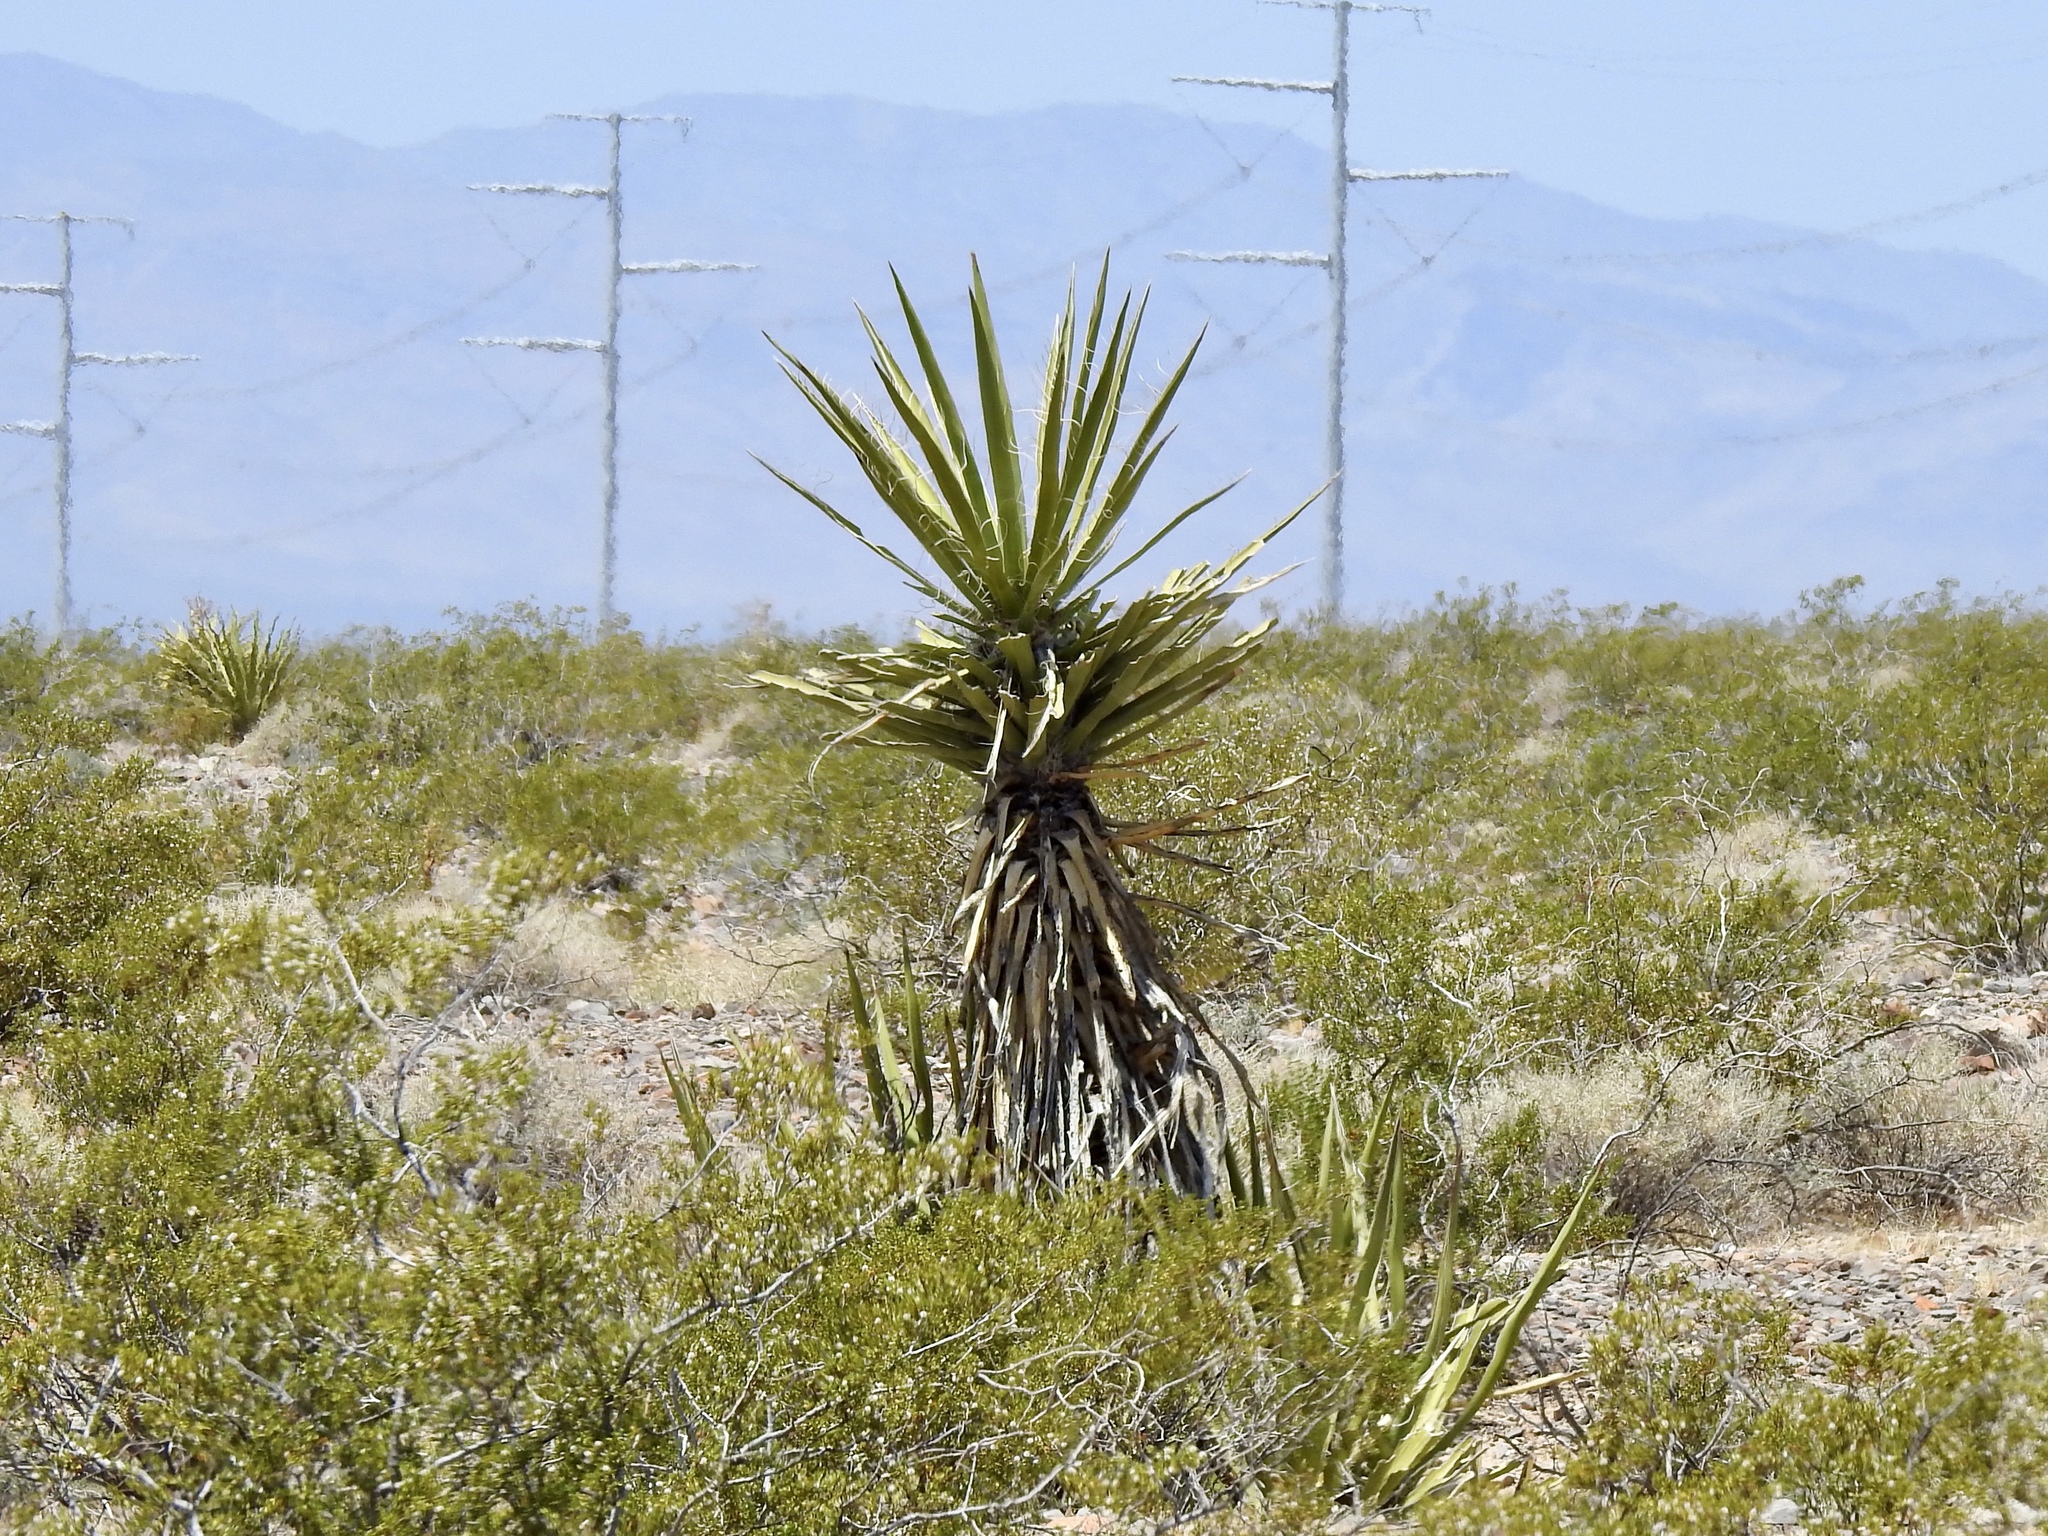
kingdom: Plantae
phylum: Tracheophyta
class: Liliopsida
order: Asparagales
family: Asparagaceae
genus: Yucca
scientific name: Yucca schidigera
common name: Mojave yucca
